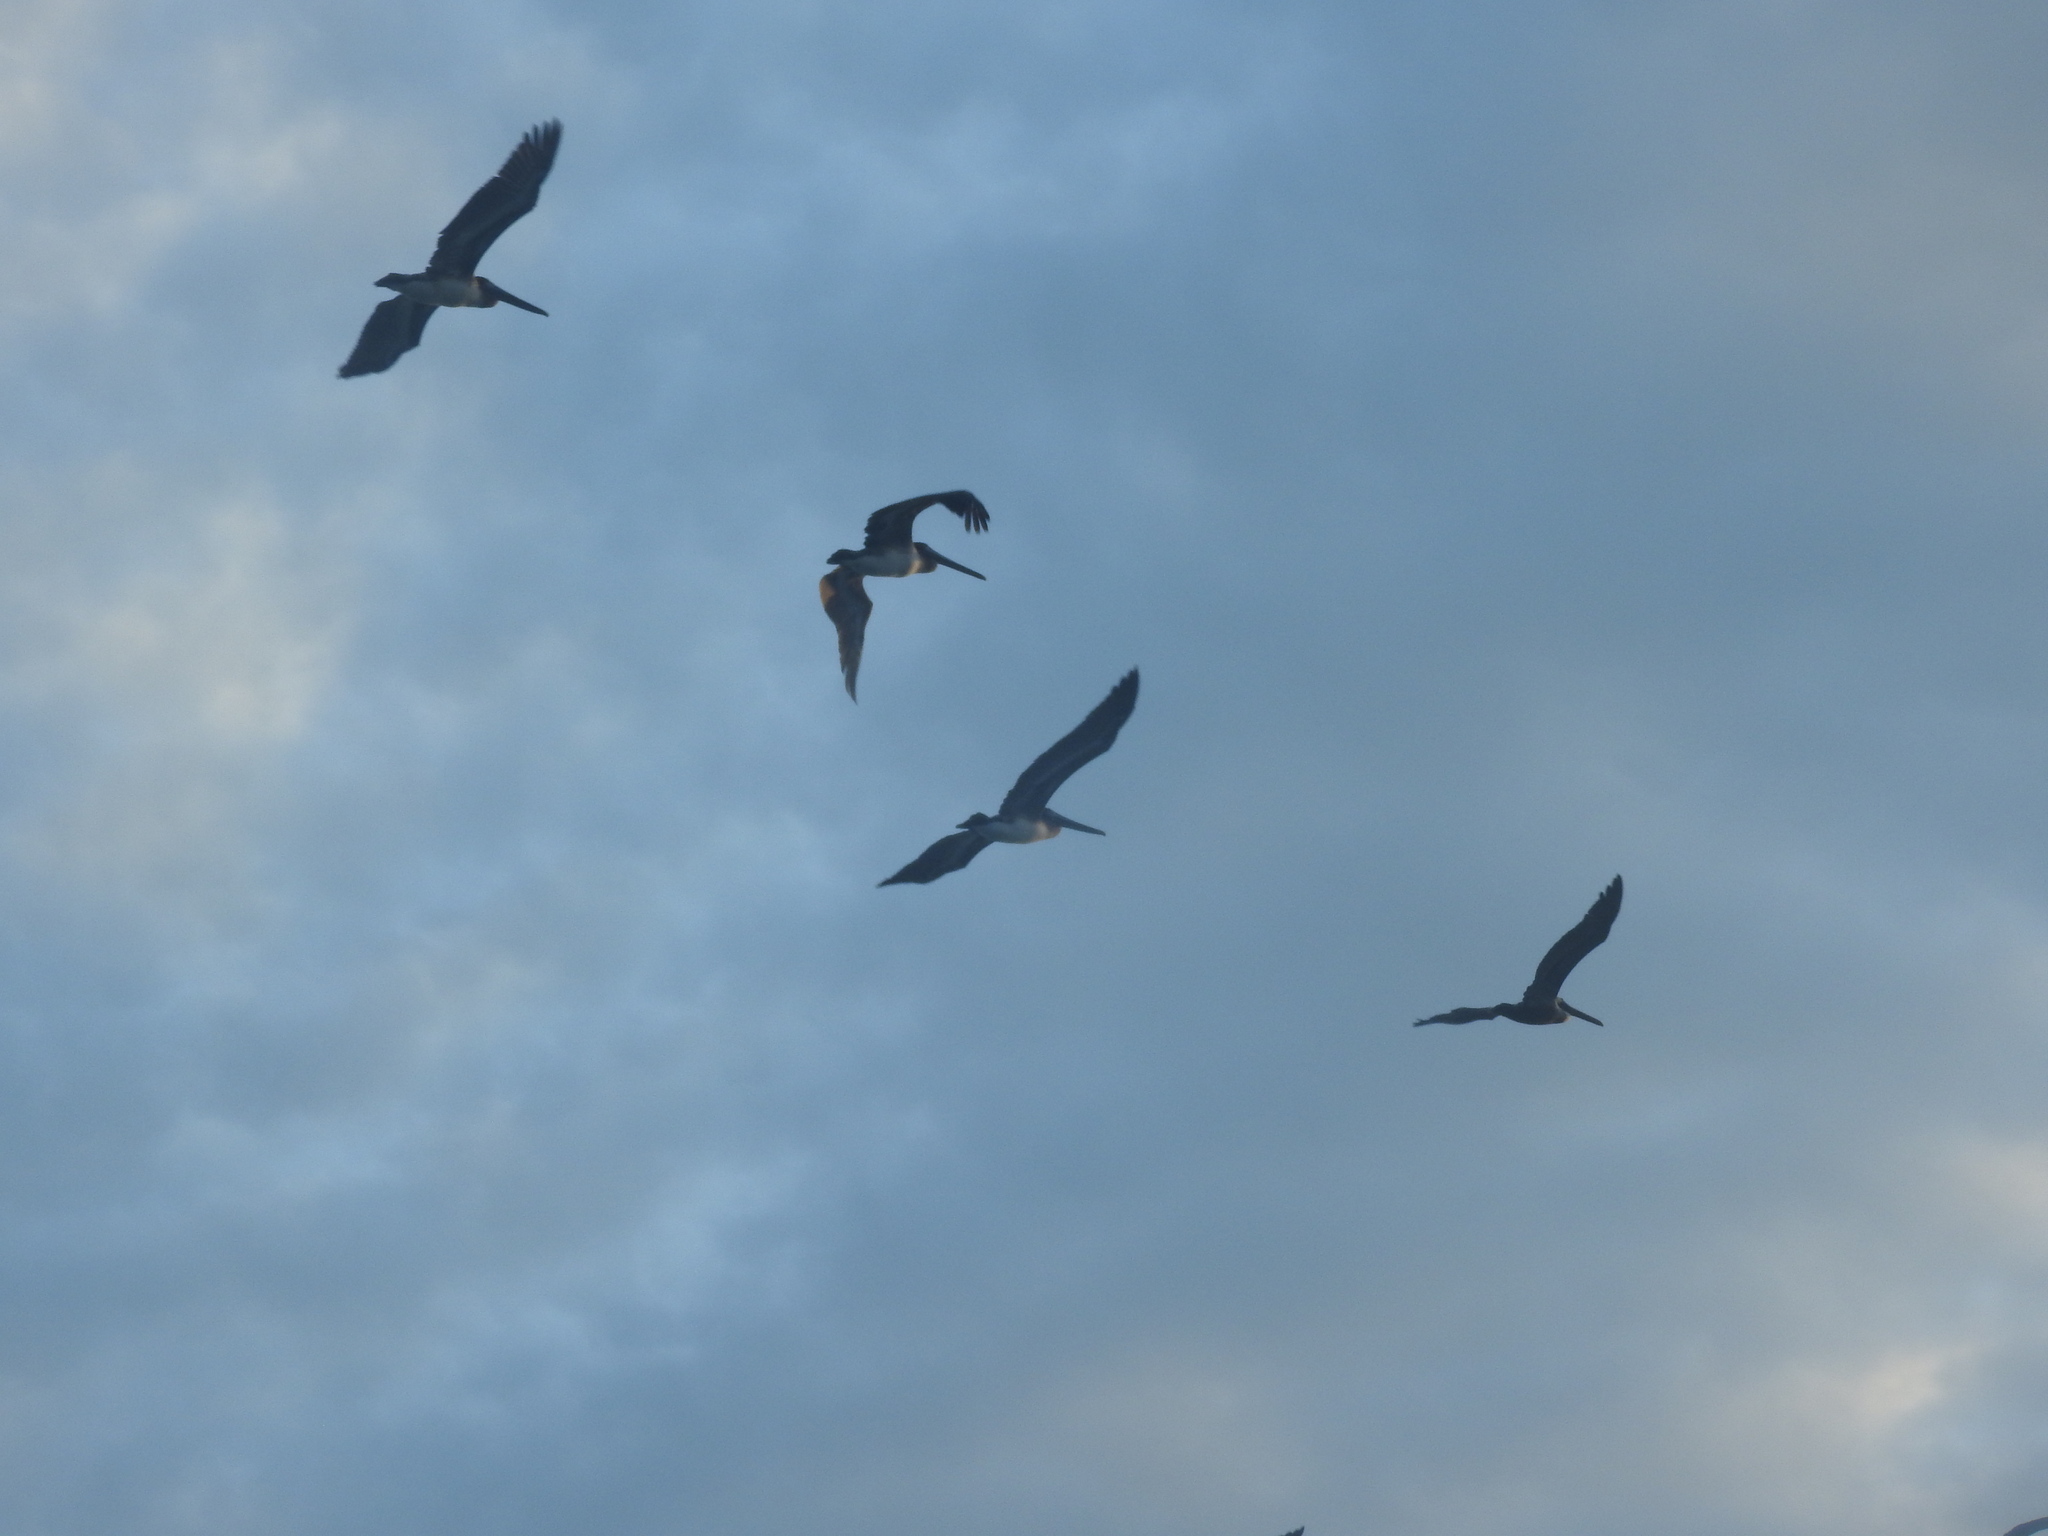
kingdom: Animalia
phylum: Chordata
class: Aves
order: Pelecaniformes
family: Pelecanidae
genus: Pelecanus
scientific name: Pelecanus occidentalis
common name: Brown pelican
